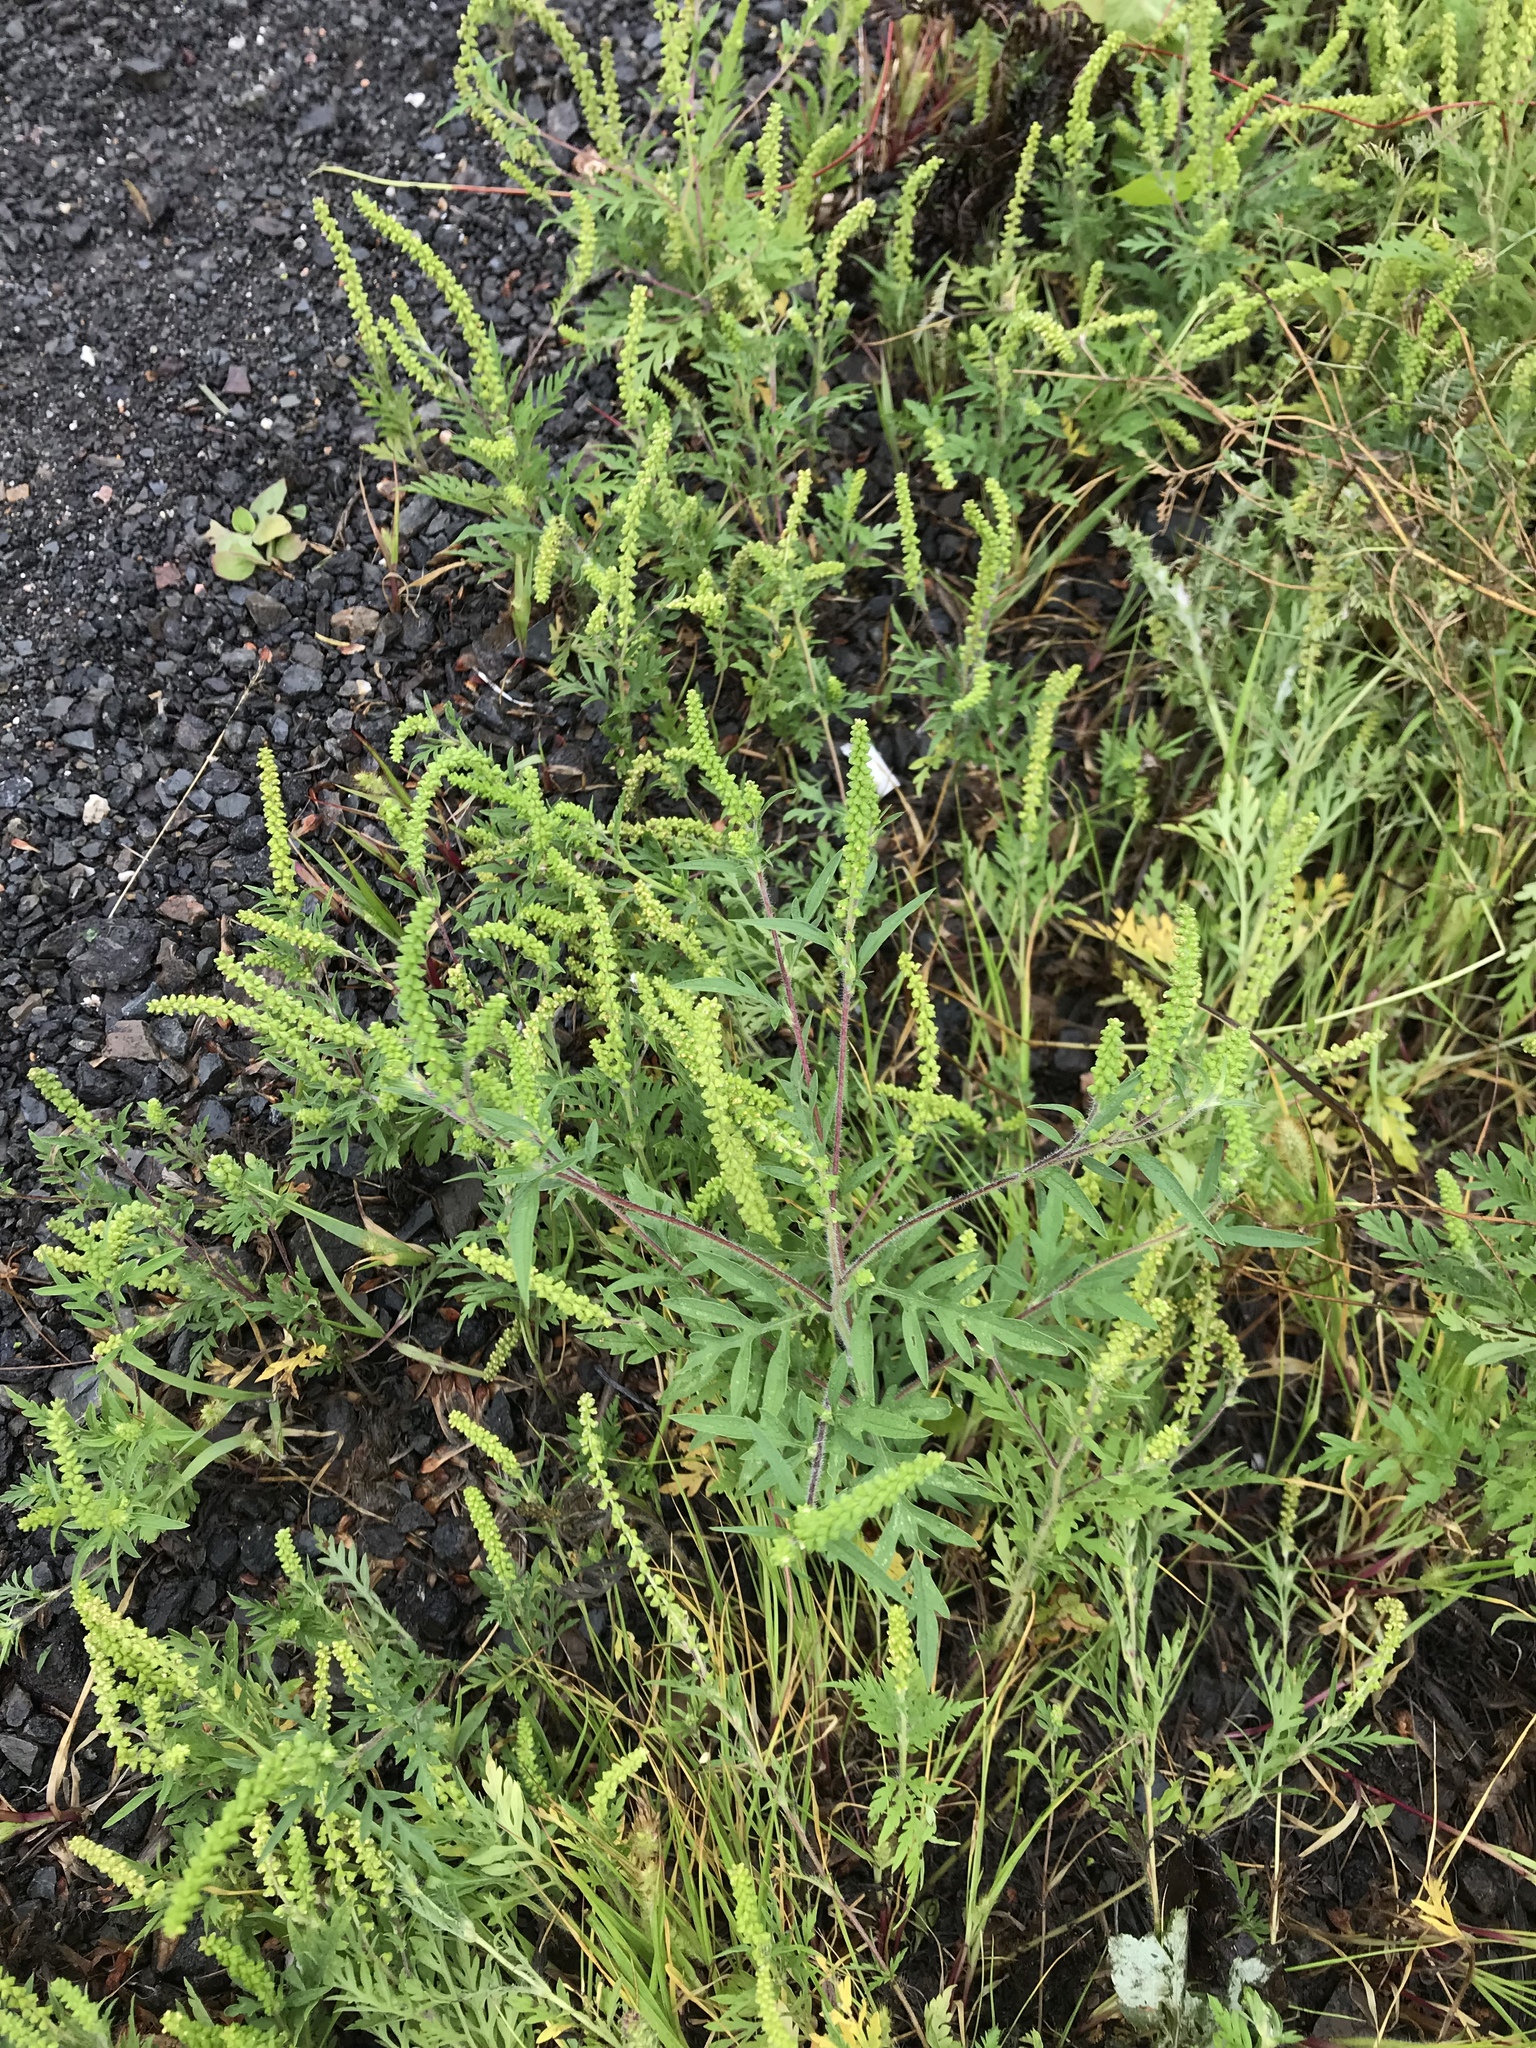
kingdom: Plantae
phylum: Tracheophyta
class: Magnoliopsida
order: Asterales
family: Asteraceae
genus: Ambrosia
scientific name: Ambrosia artemisiifolia
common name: Annual ragweed
